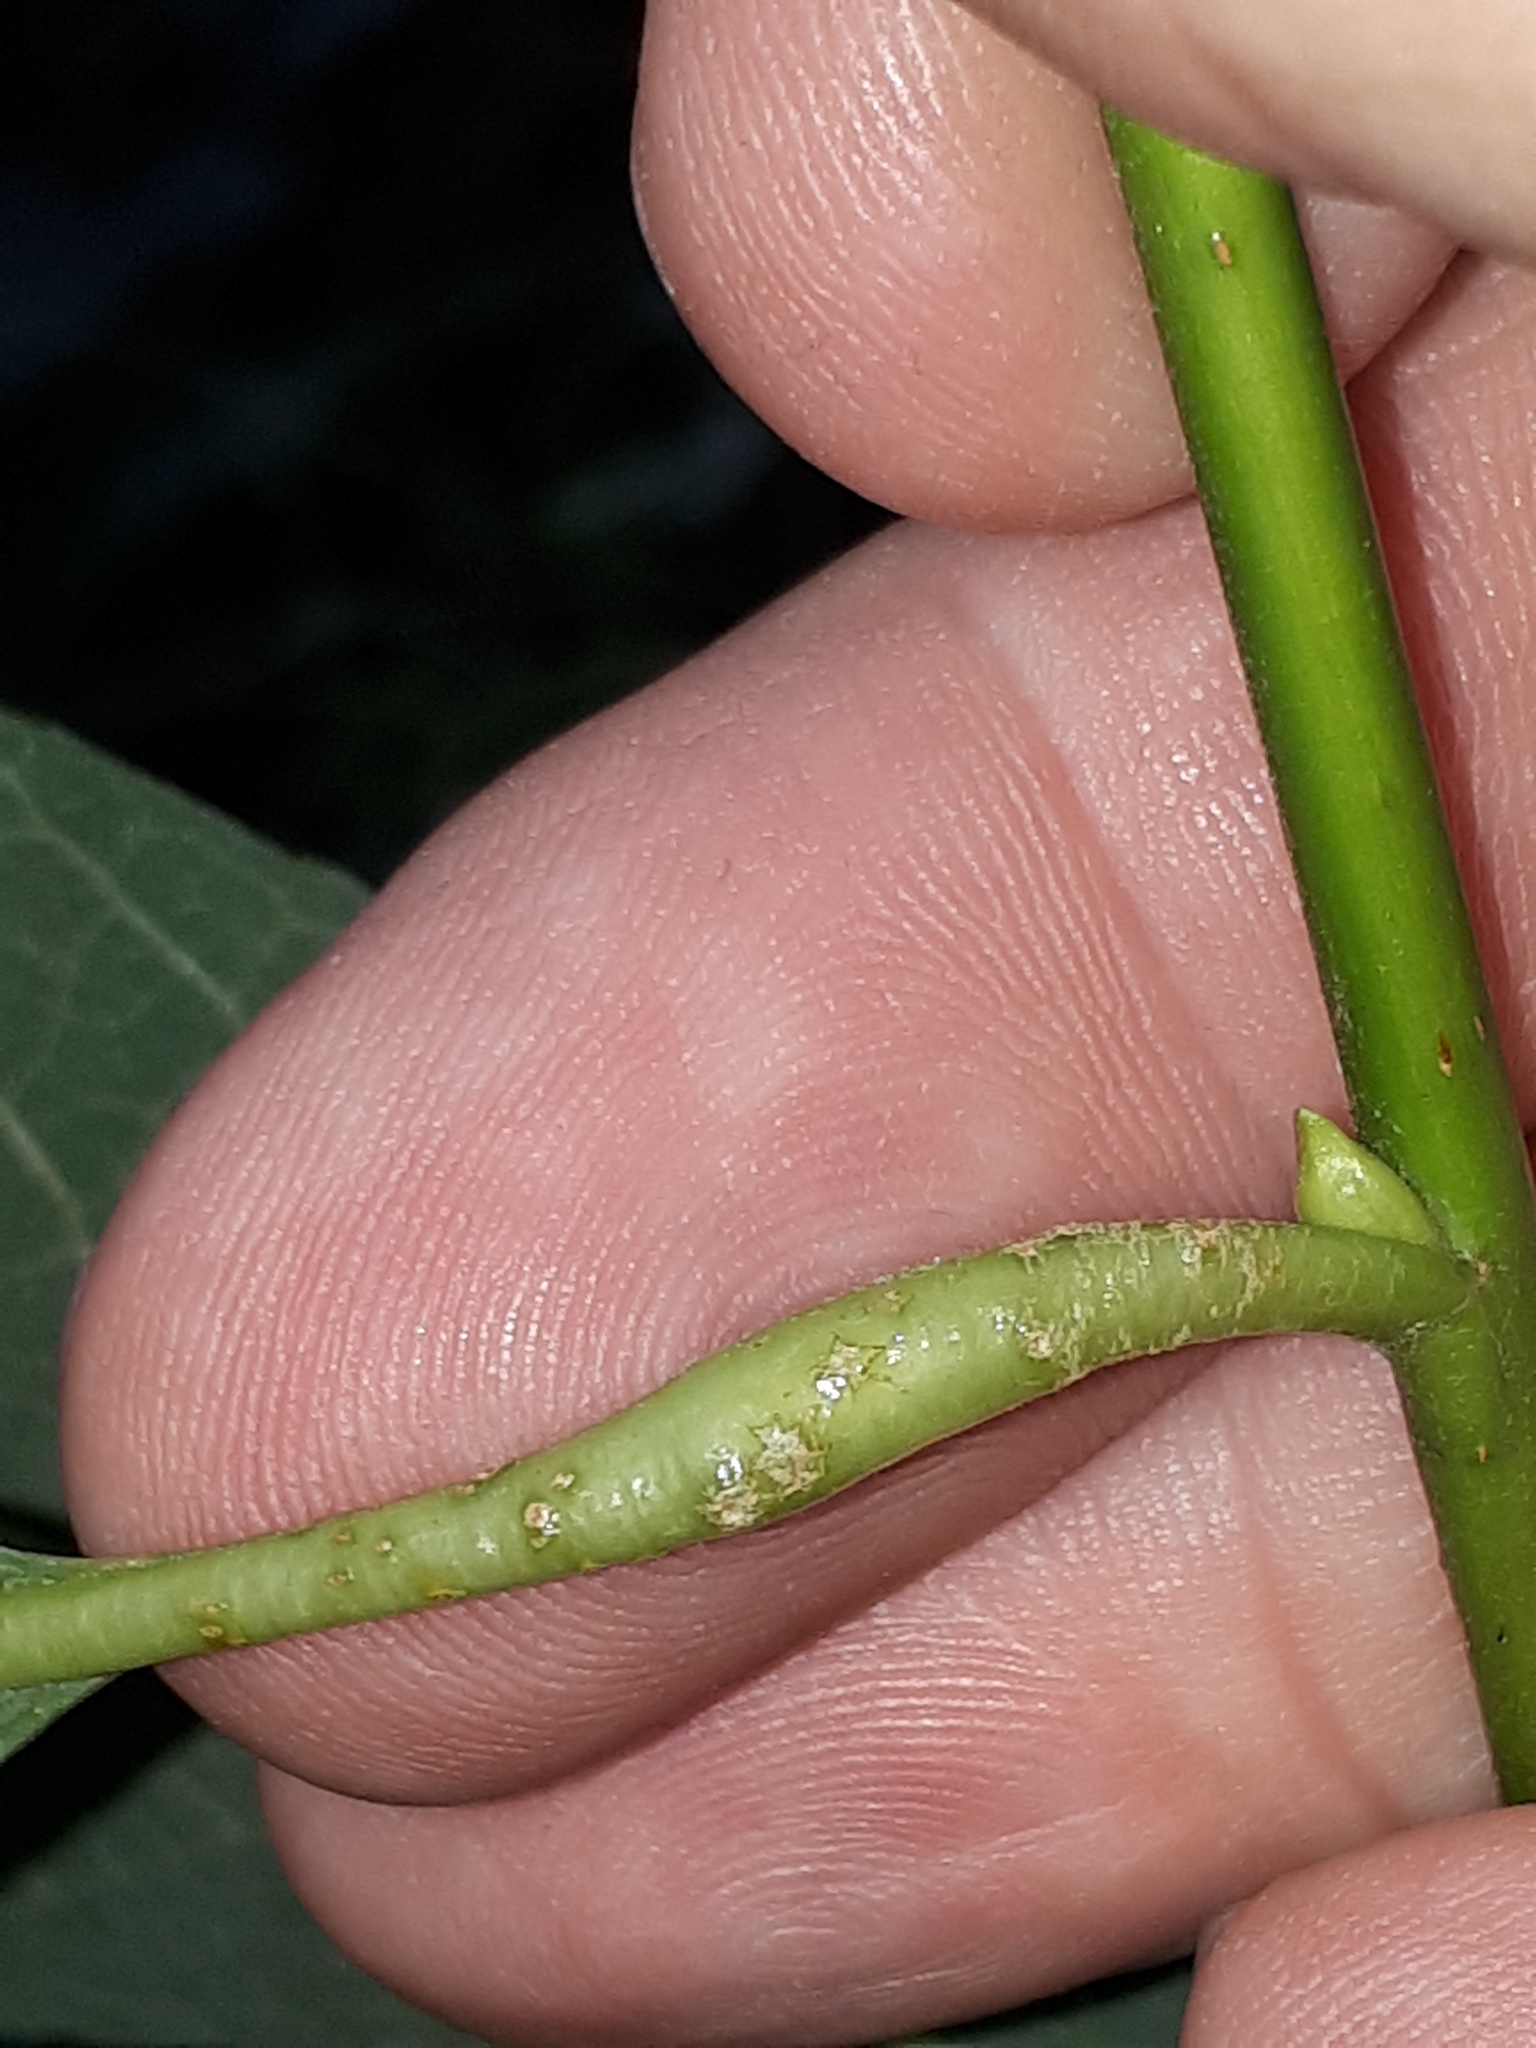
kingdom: Animalia
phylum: Arthropoda
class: Insecta
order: Hymenoptera
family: Tenthredinidae
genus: Euura
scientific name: Euura venusta
